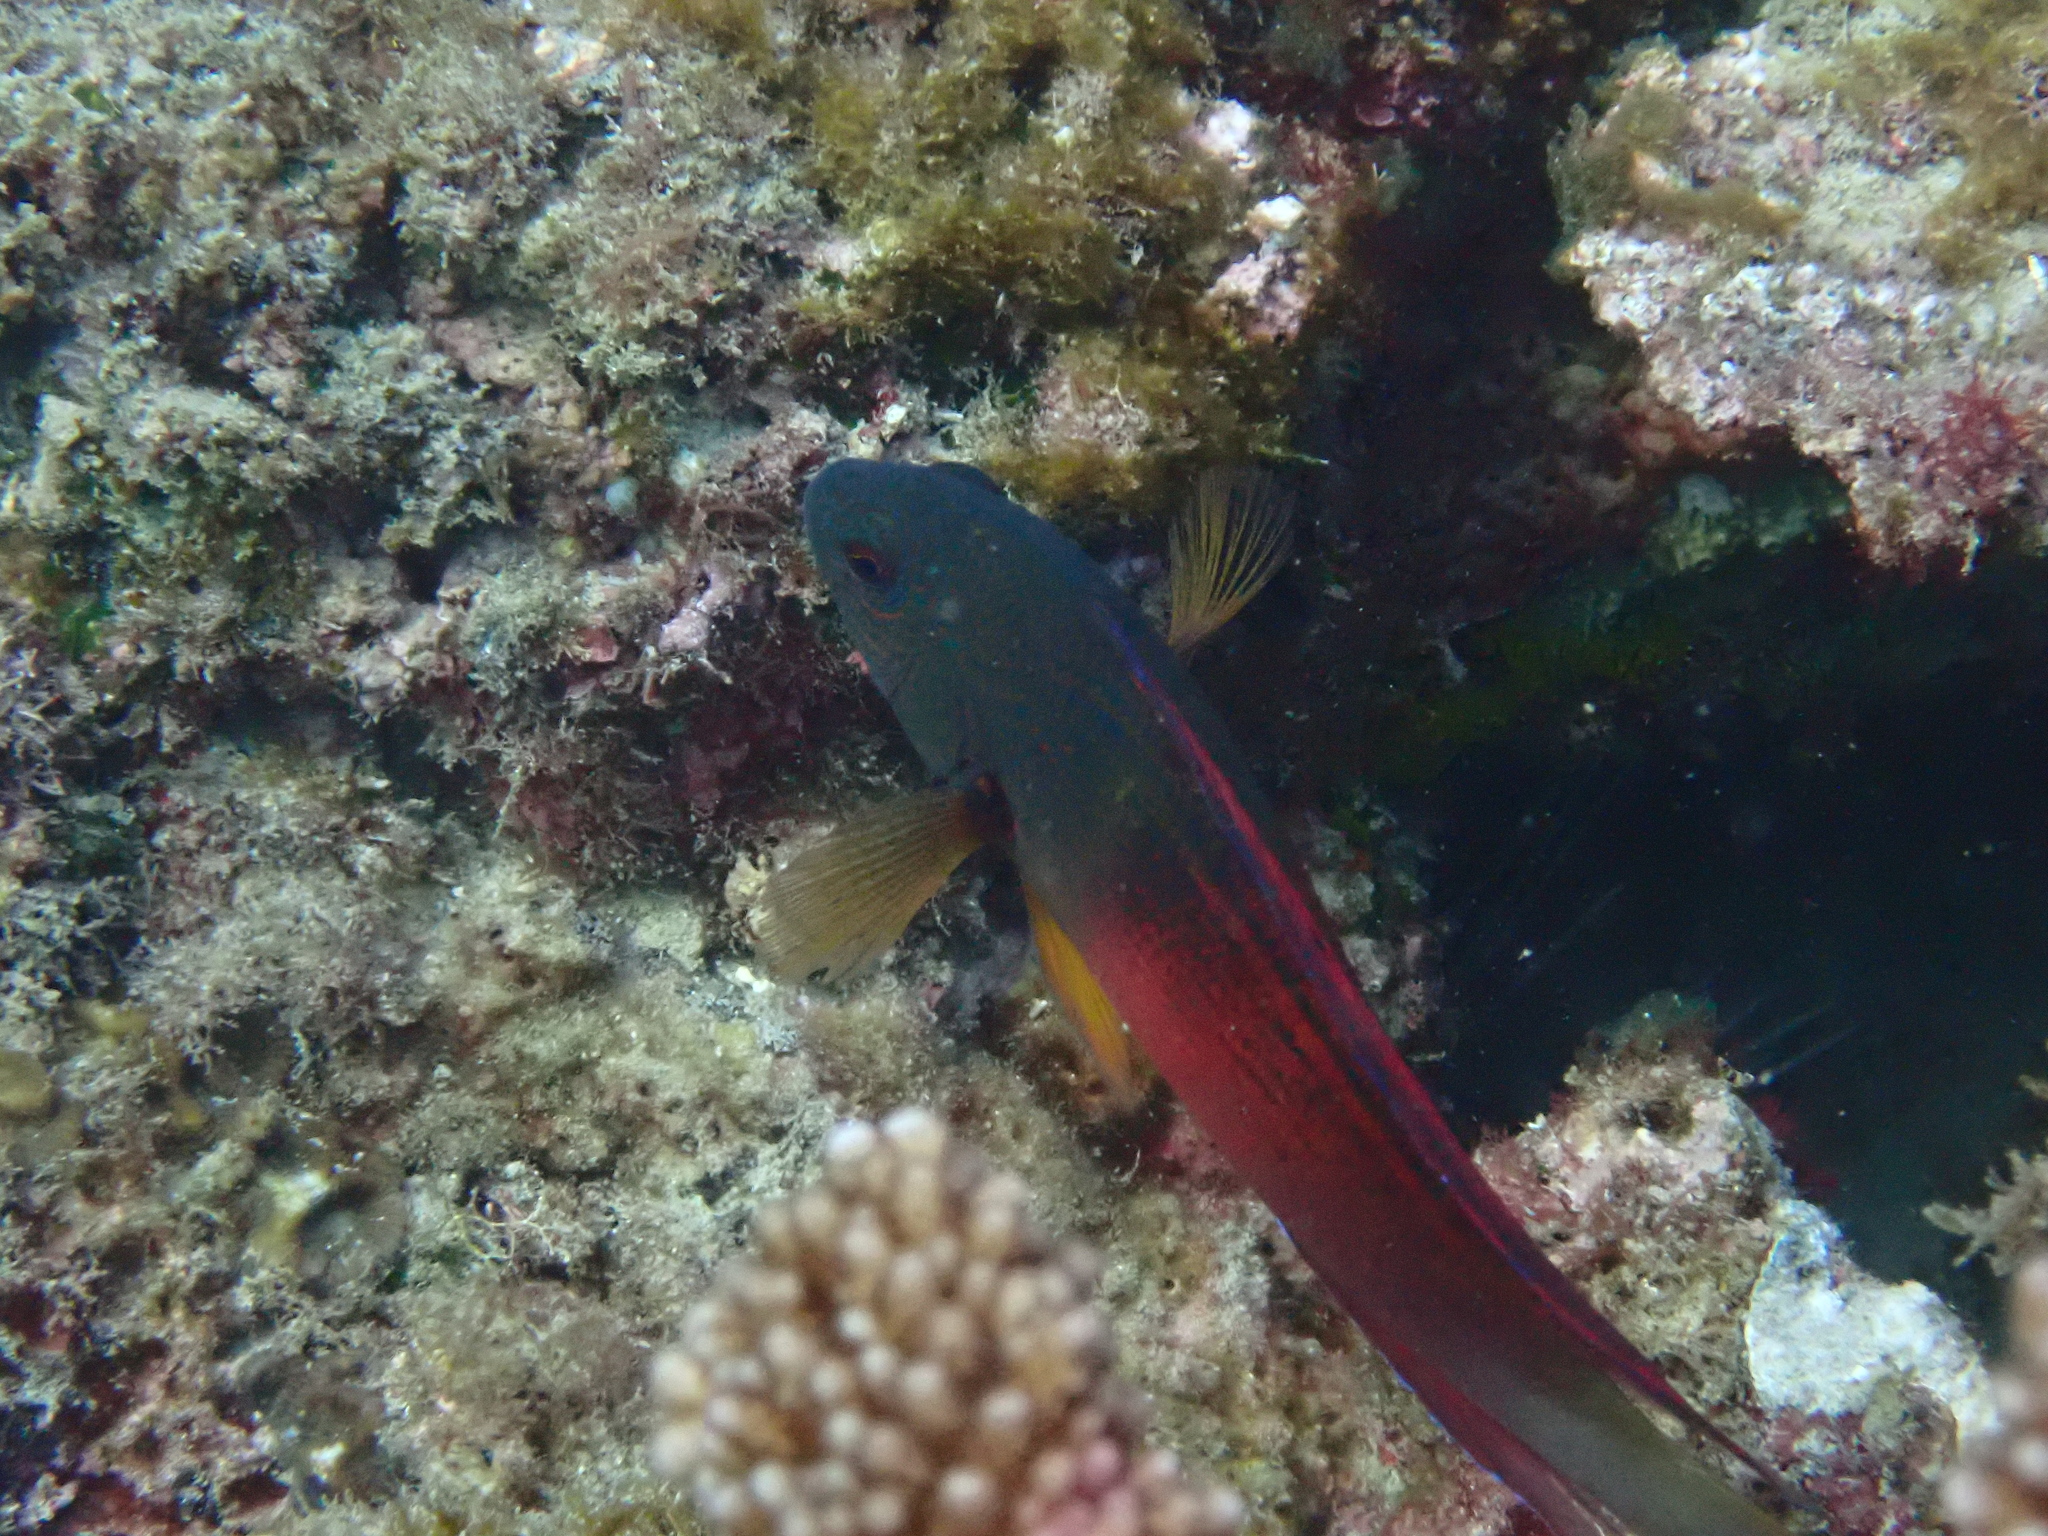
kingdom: Animalia
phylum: Chordata
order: Perciformes
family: Pseudochromidae
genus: Labracinus
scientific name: Labracinus cyclophthalmus
